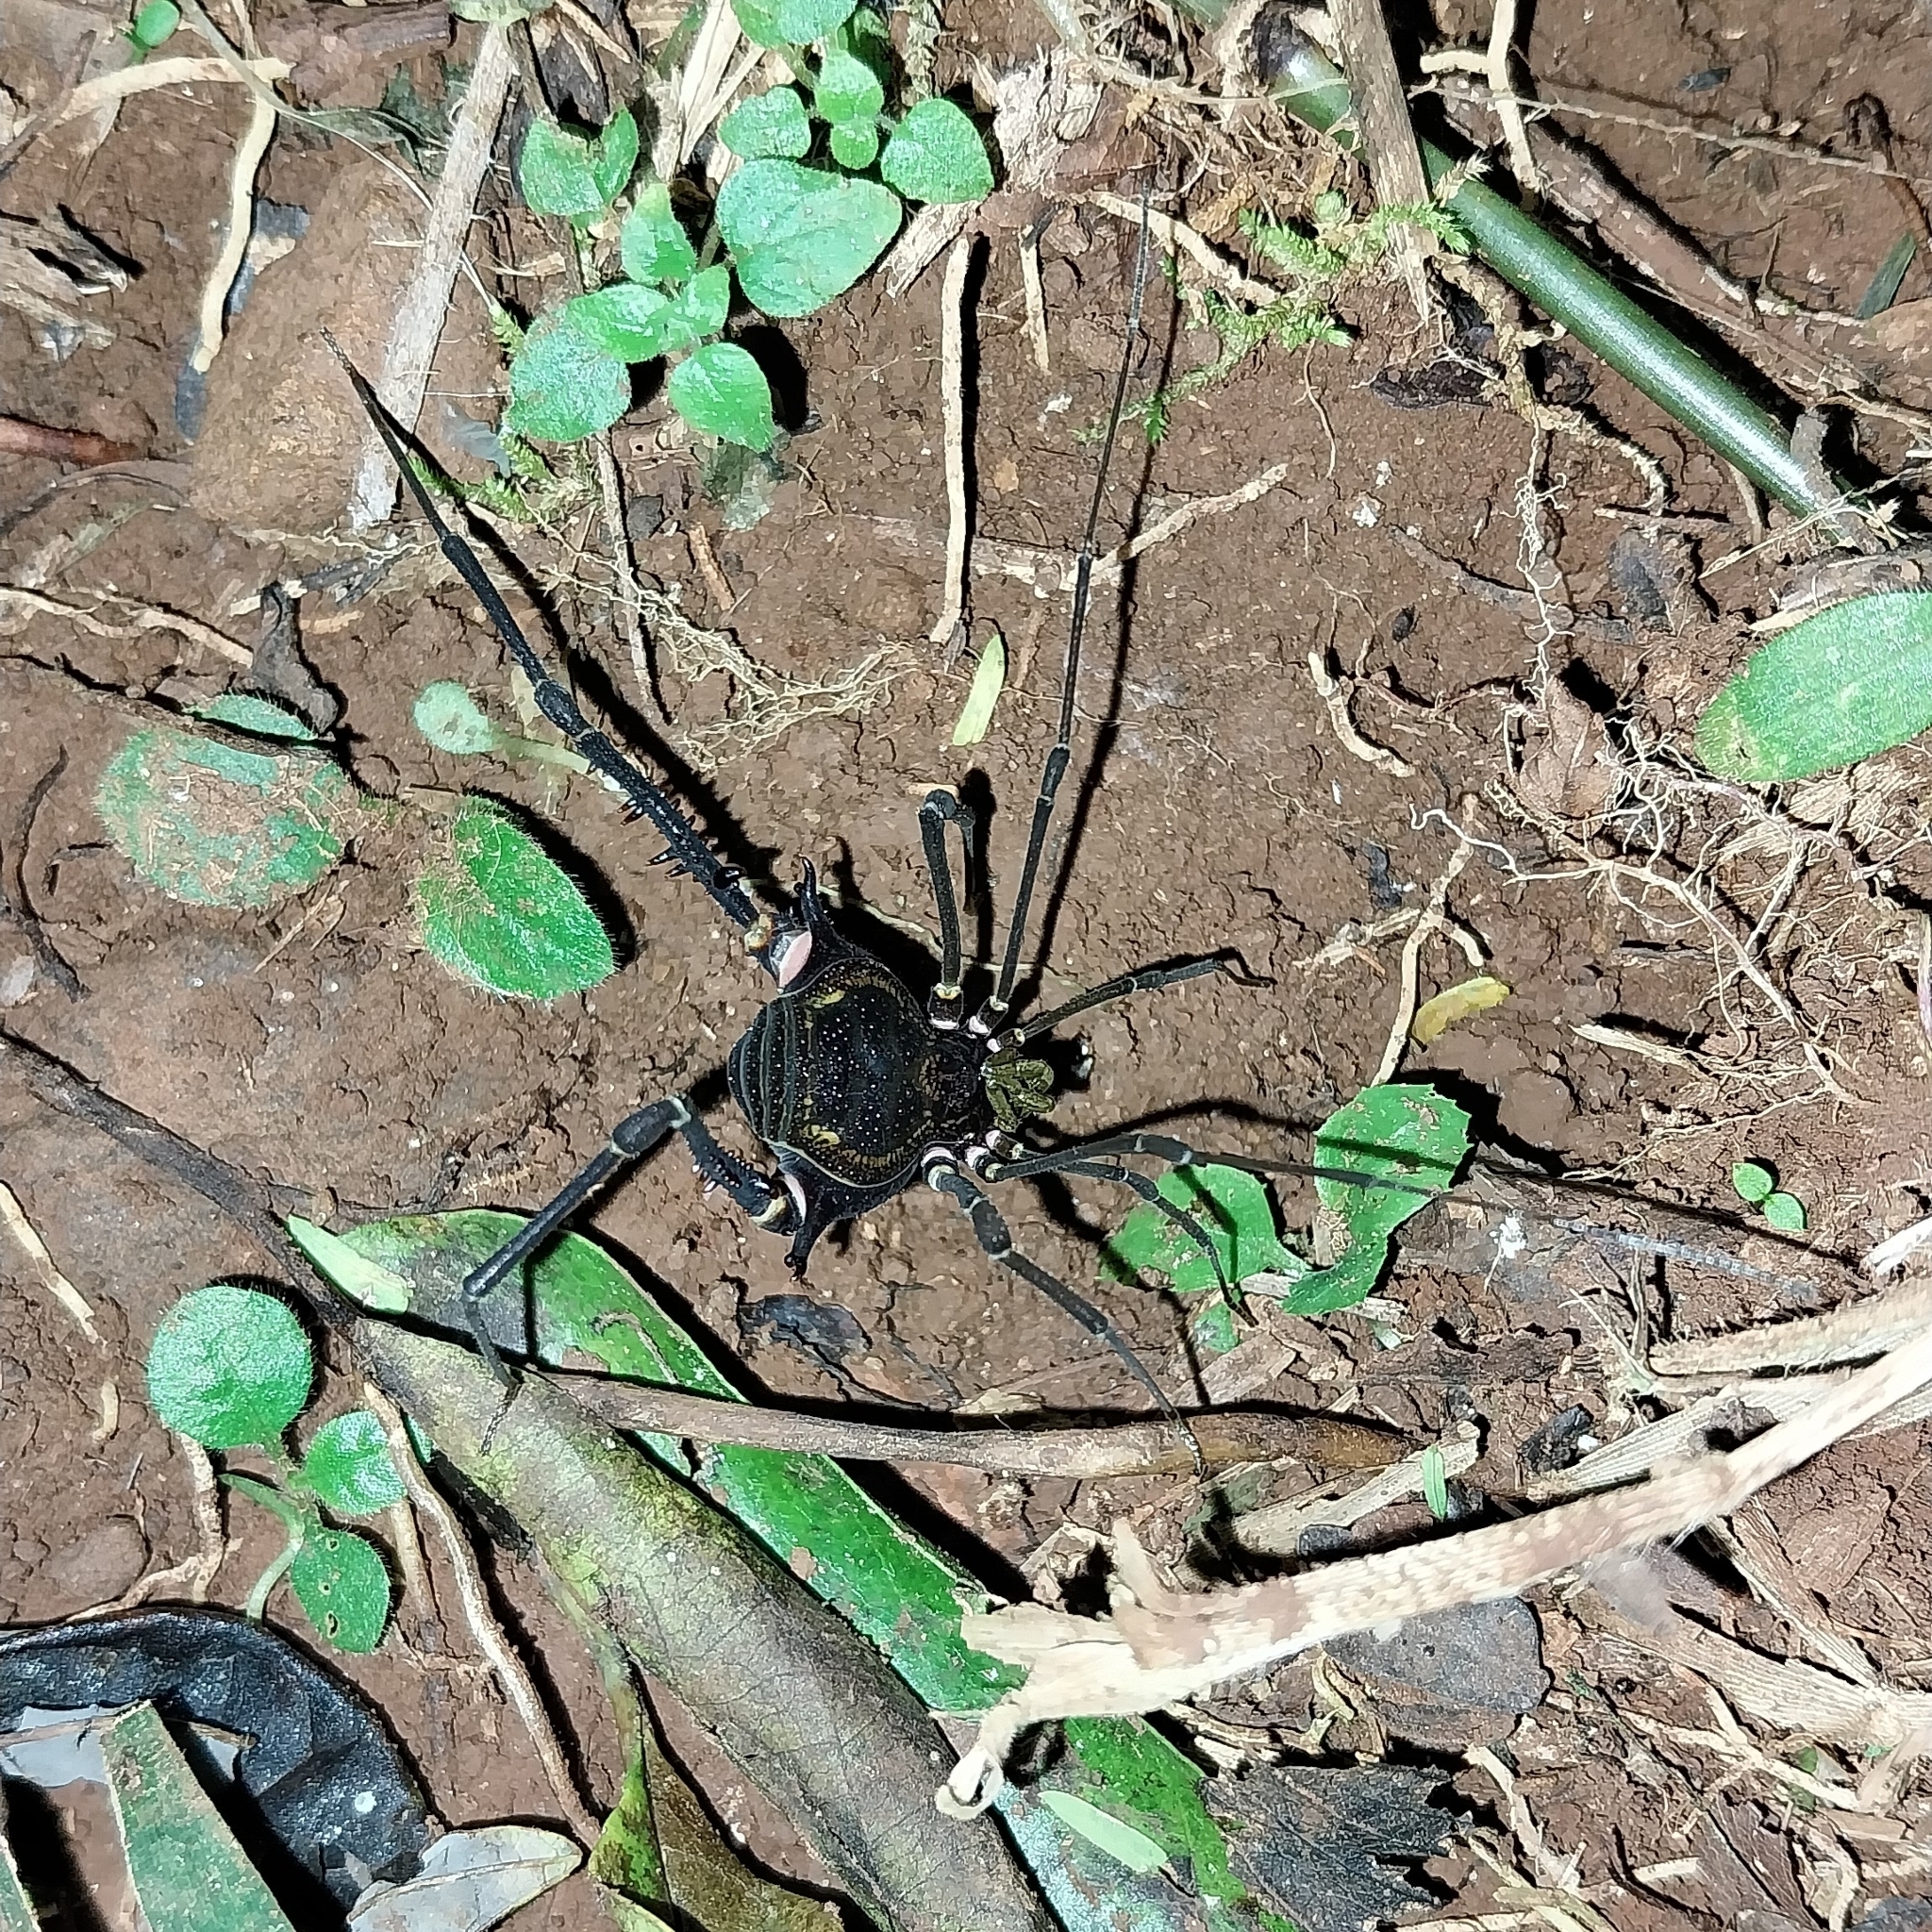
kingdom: Animalia
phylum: Arthropoda
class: Arachnida
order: Opiliones
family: Gonyleptidae
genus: Geraeocormobius
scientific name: Geraeocormobius sylvarum
